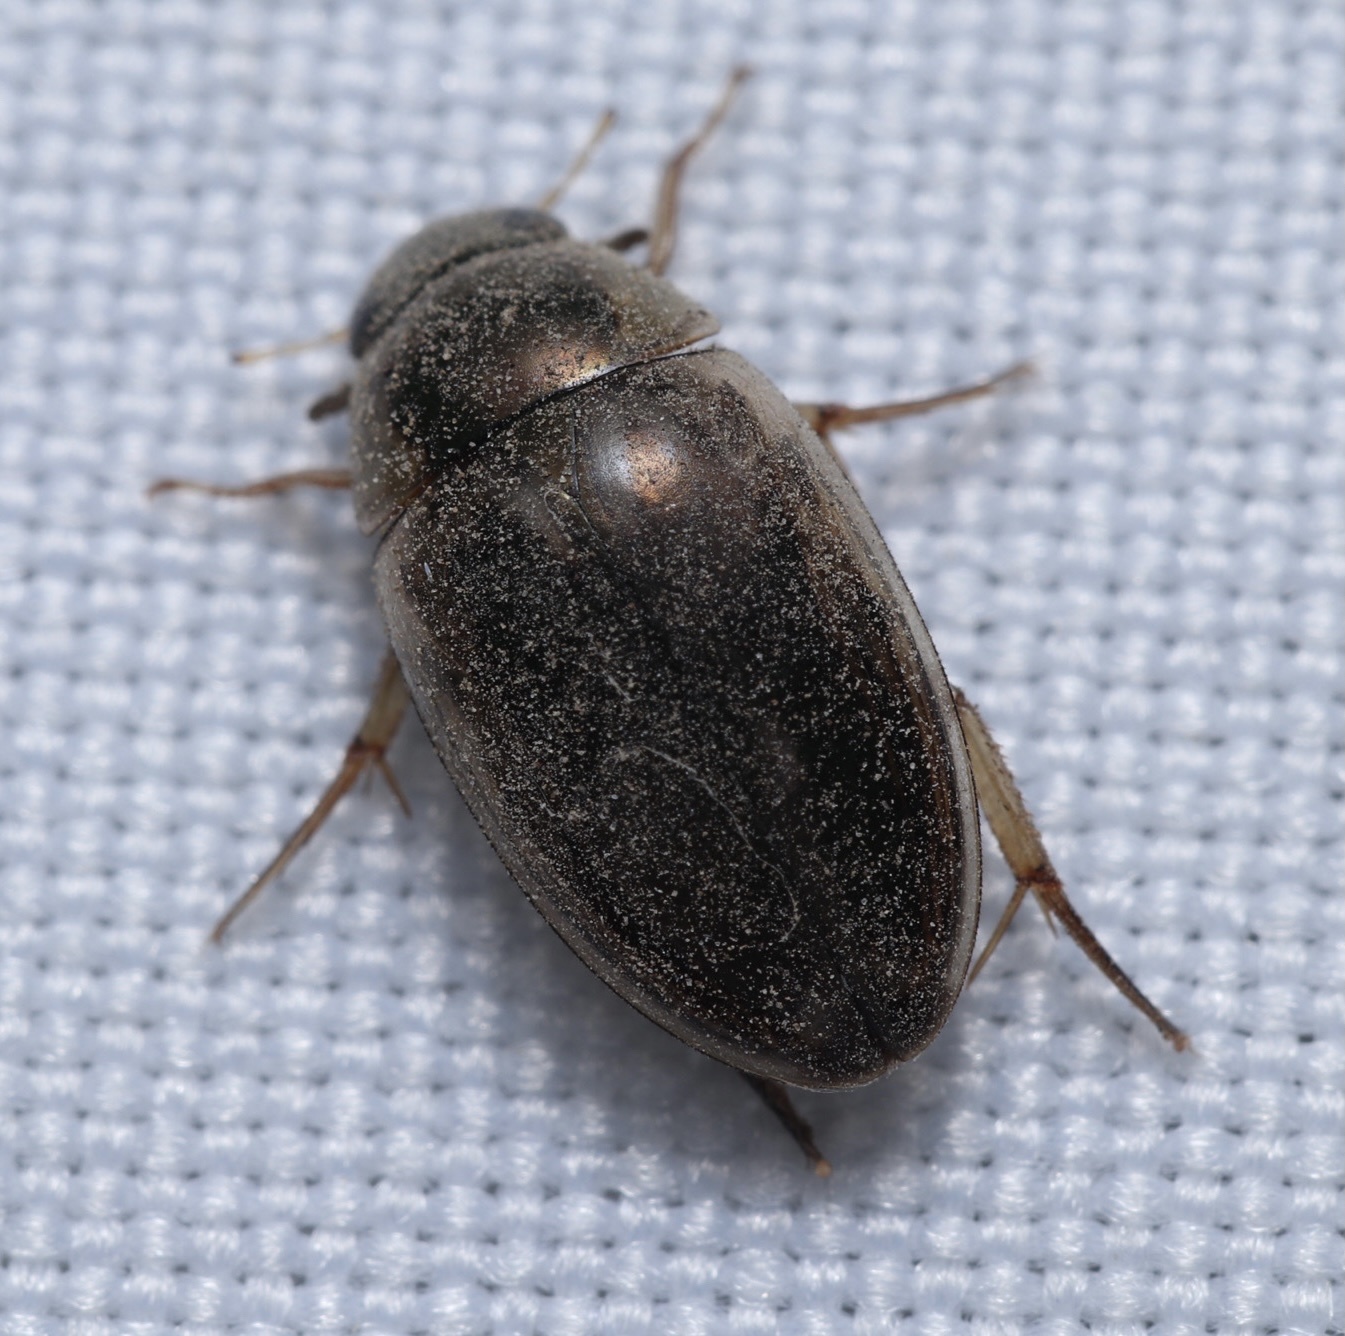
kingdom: Animalia
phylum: Arthropoda
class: Insecta
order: Coleoptera
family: Hydrophilidae
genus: Tropisternus
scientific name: Tropisternus lateralis
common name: Lateral-banded water scavenger beetle
